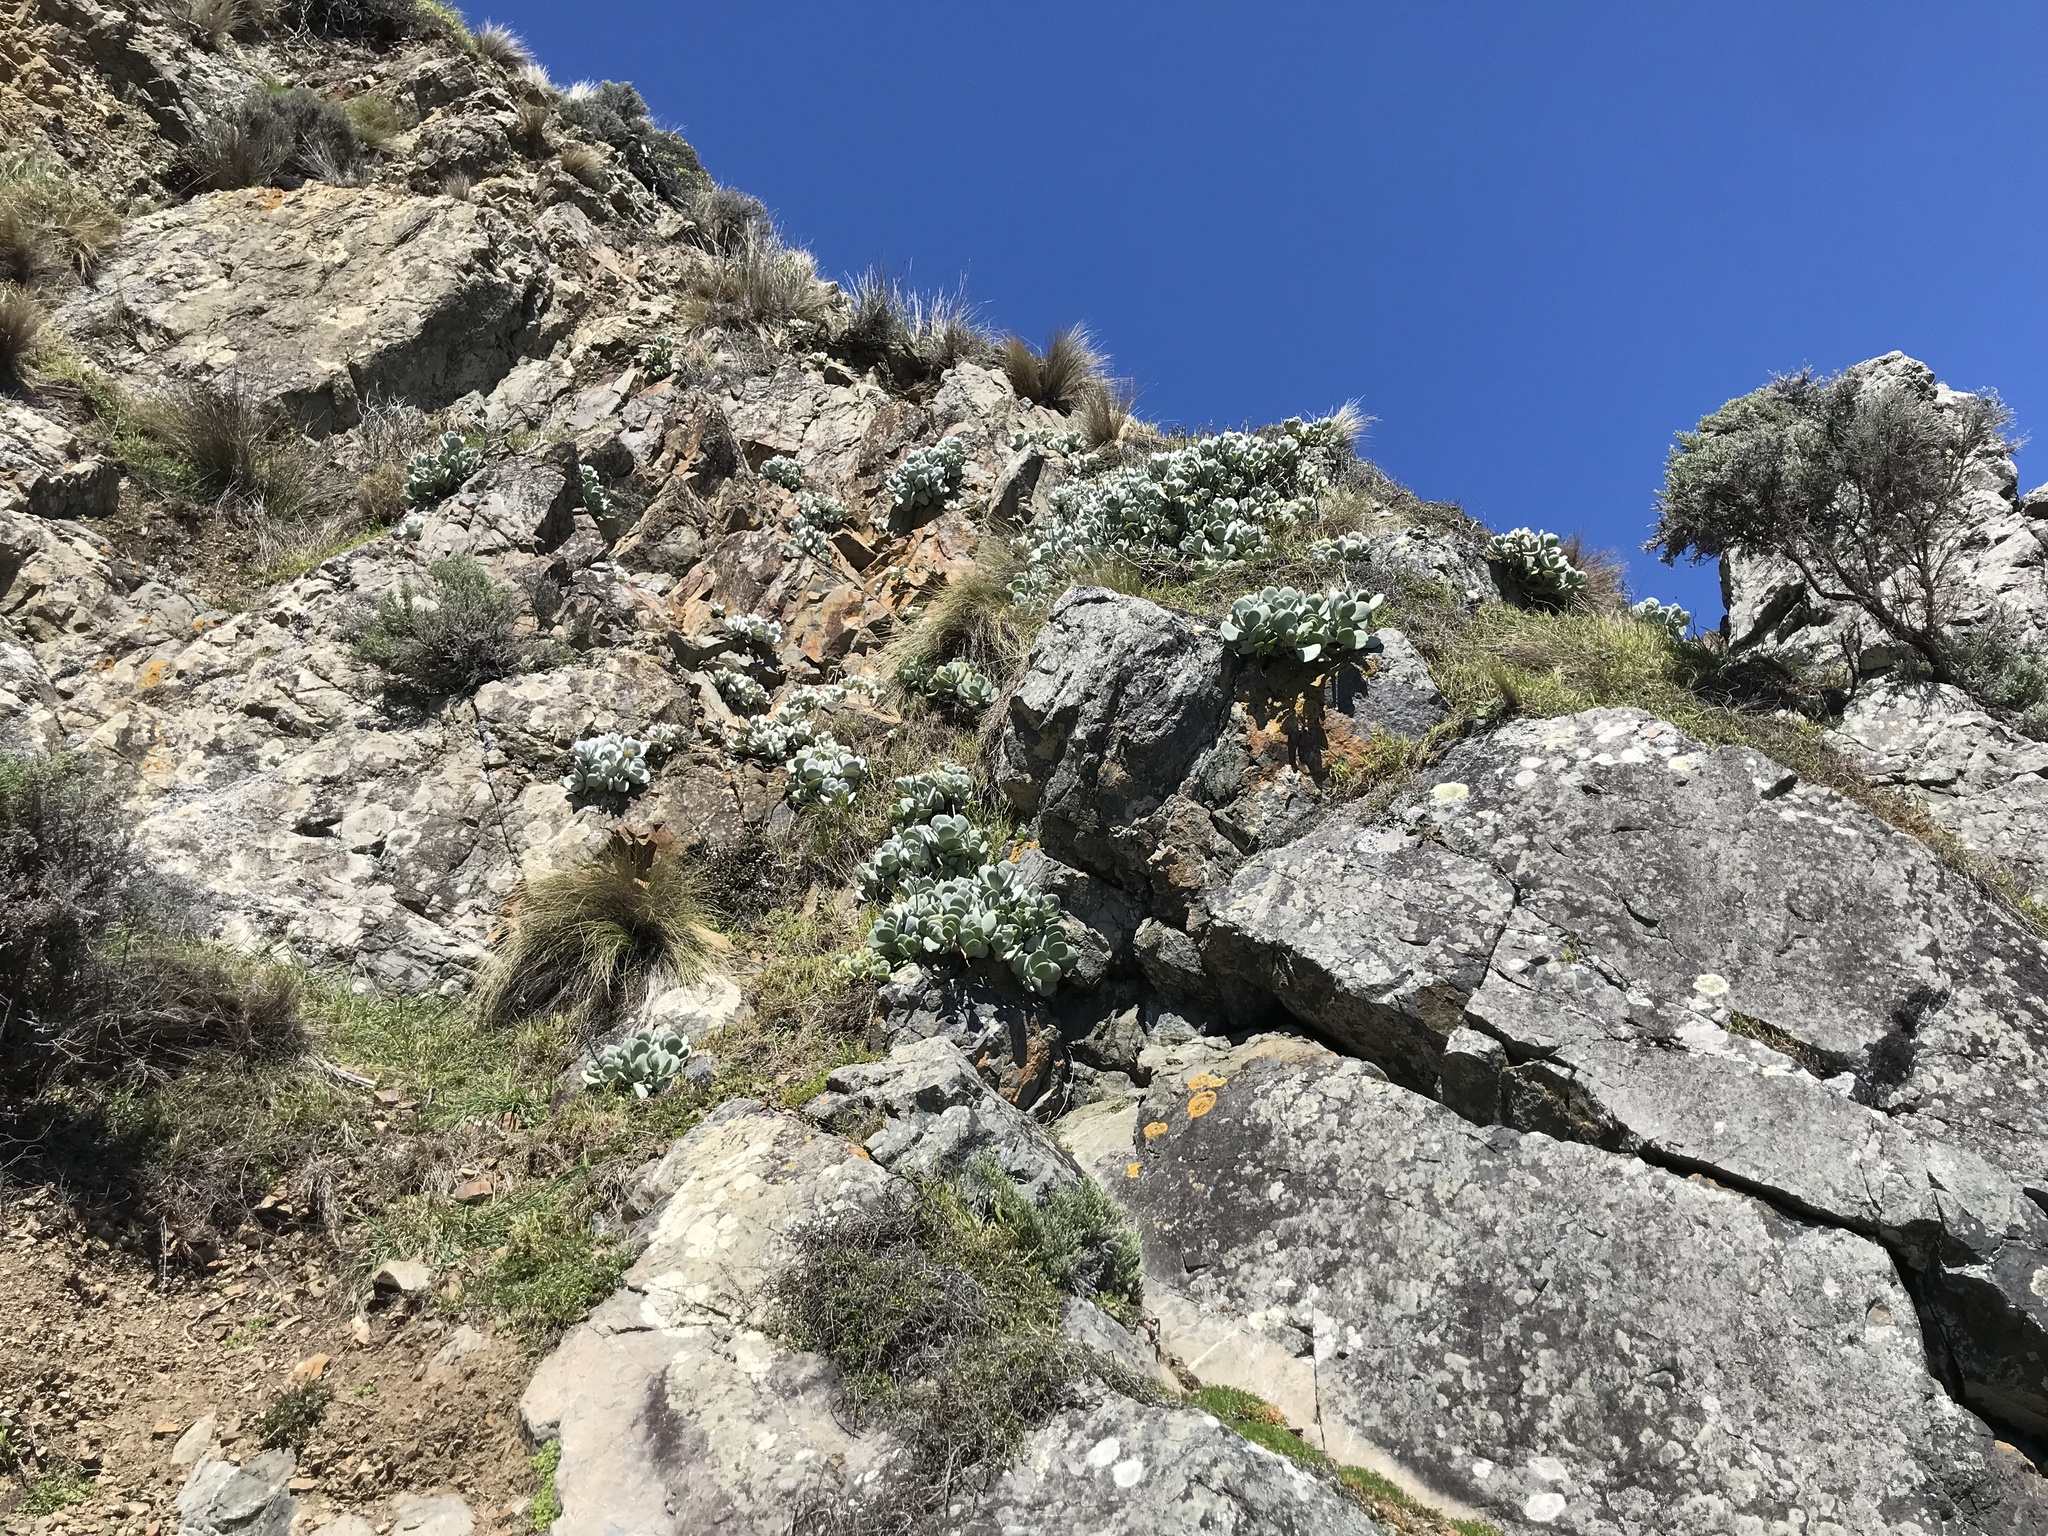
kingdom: Plantae
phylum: Tracheophyta
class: Magnoliopsida
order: Saxifragales
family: Crassulaceae
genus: Cotyledon
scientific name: Cotyledon orbiculata
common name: Pig's ear
